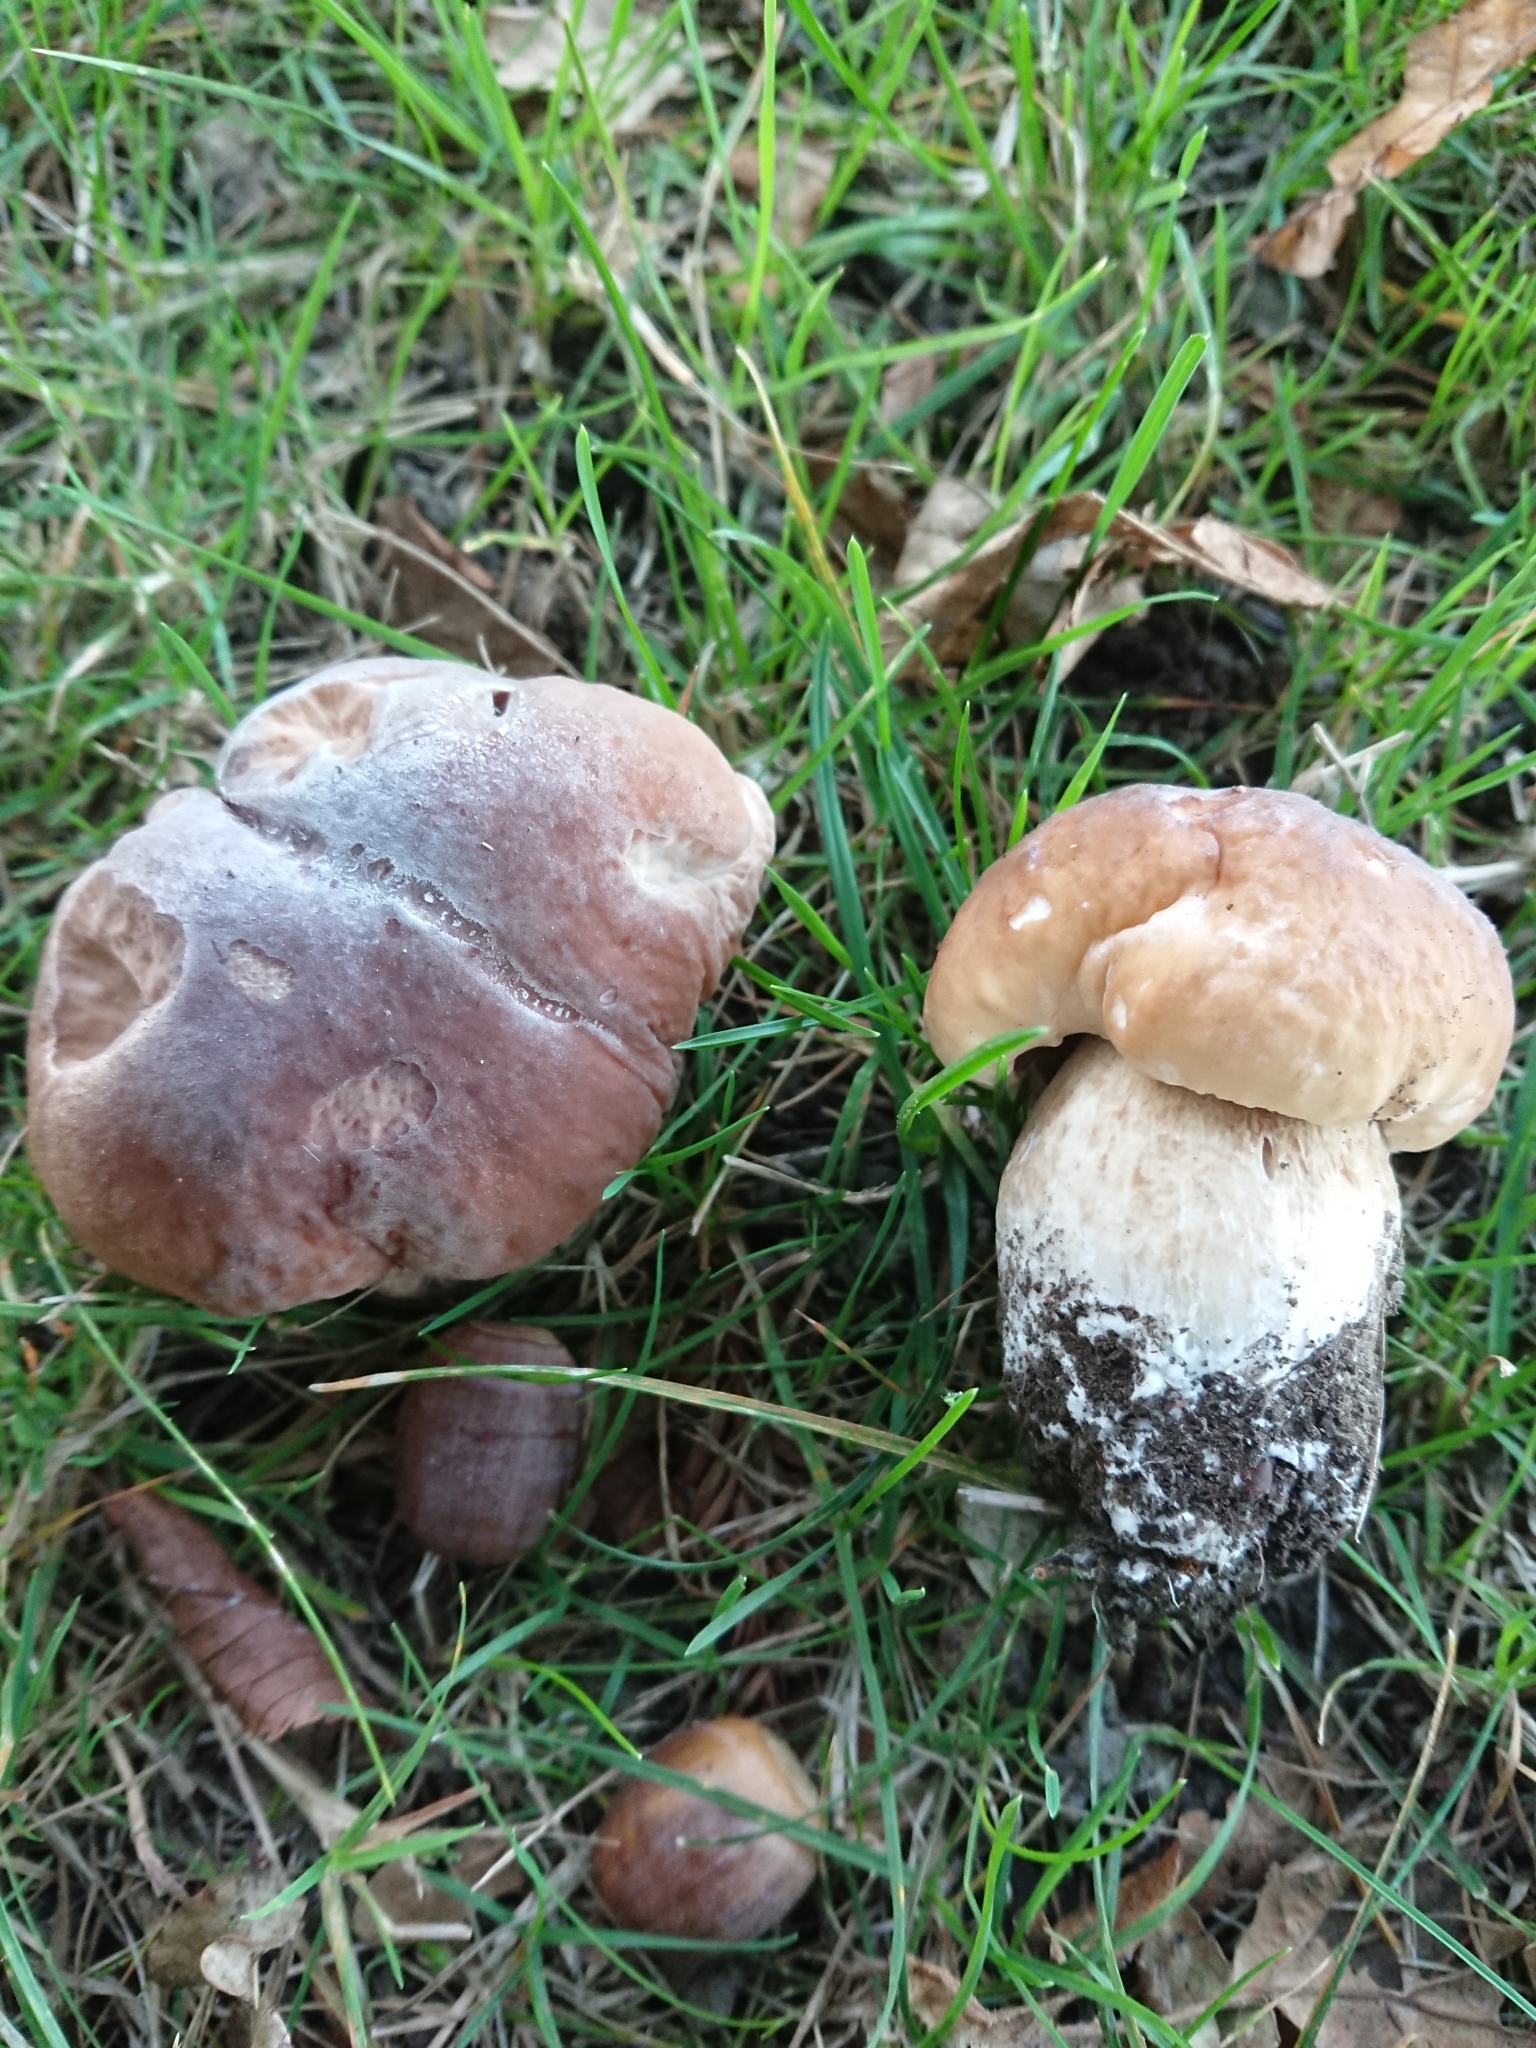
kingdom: Fungi
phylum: Basidiomycota
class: Agaricomycetes
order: Boletales
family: Boletaceae
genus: Boletus
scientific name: Boletus edulis
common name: Cep
